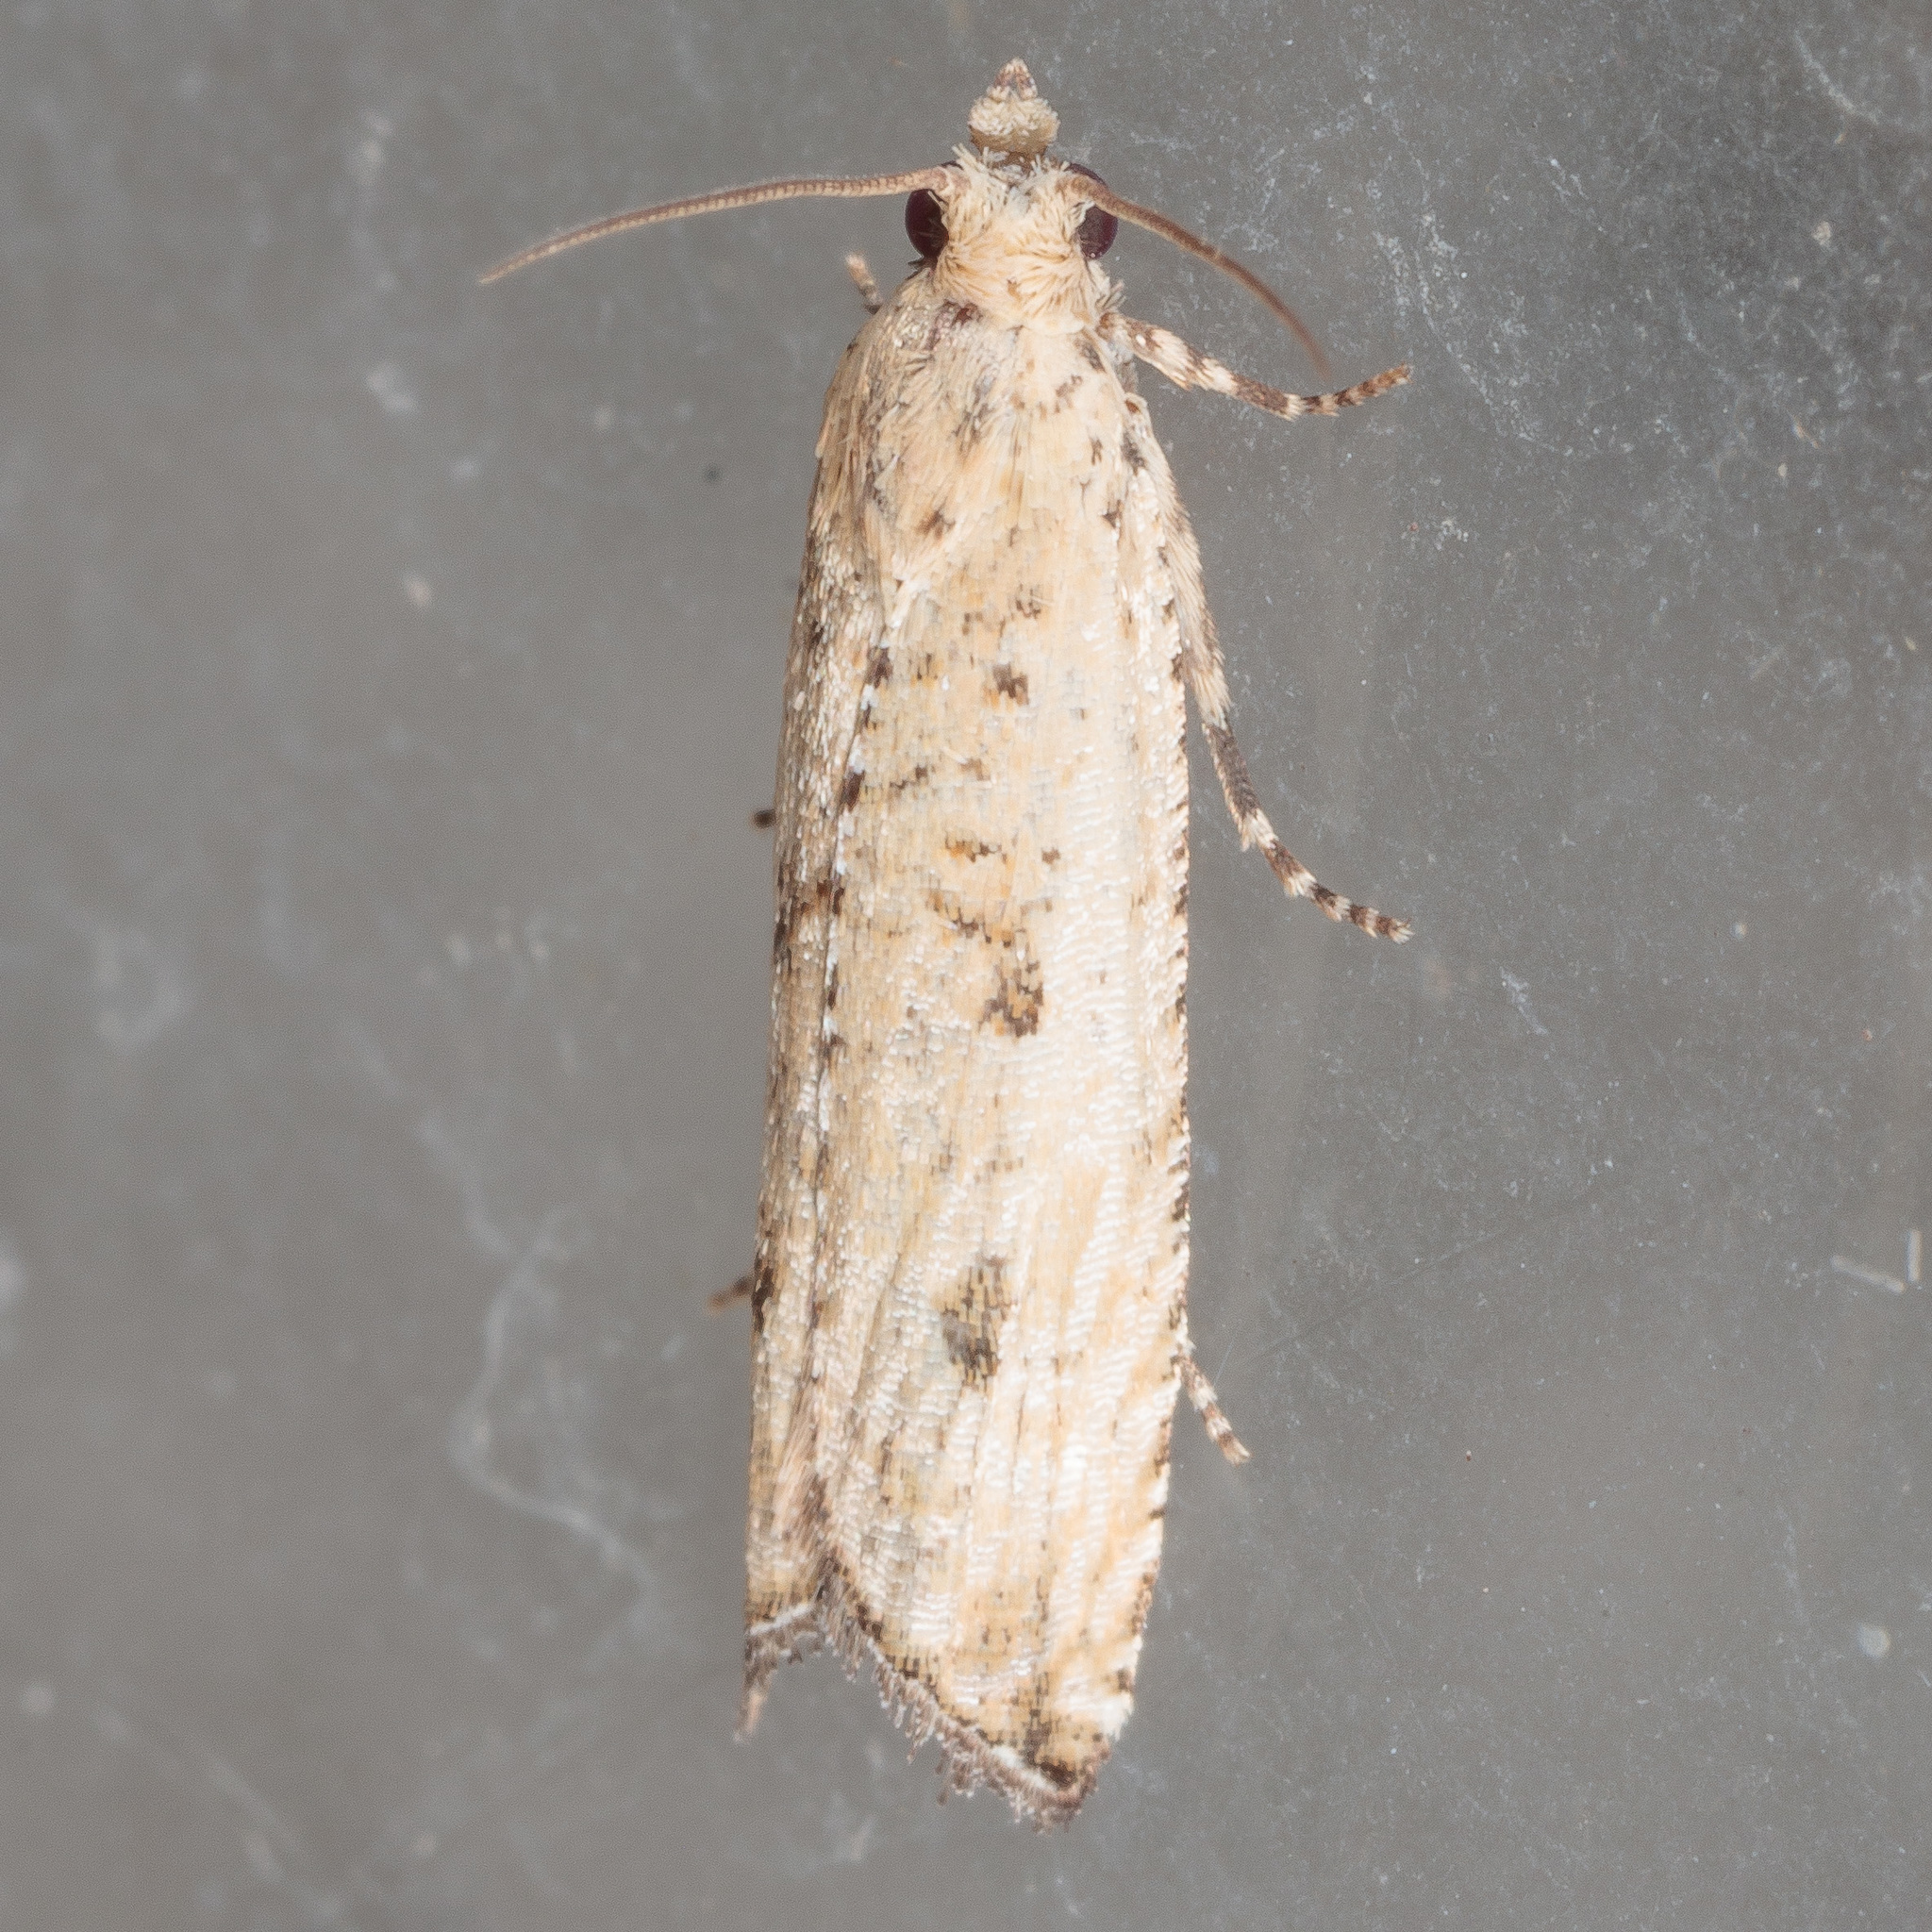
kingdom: Animalia
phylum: Arthropoda
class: Insecta
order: Lepidoptera
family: Tortricidae
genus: Bactra
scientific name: Bactra verutana
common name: Javelin moth
